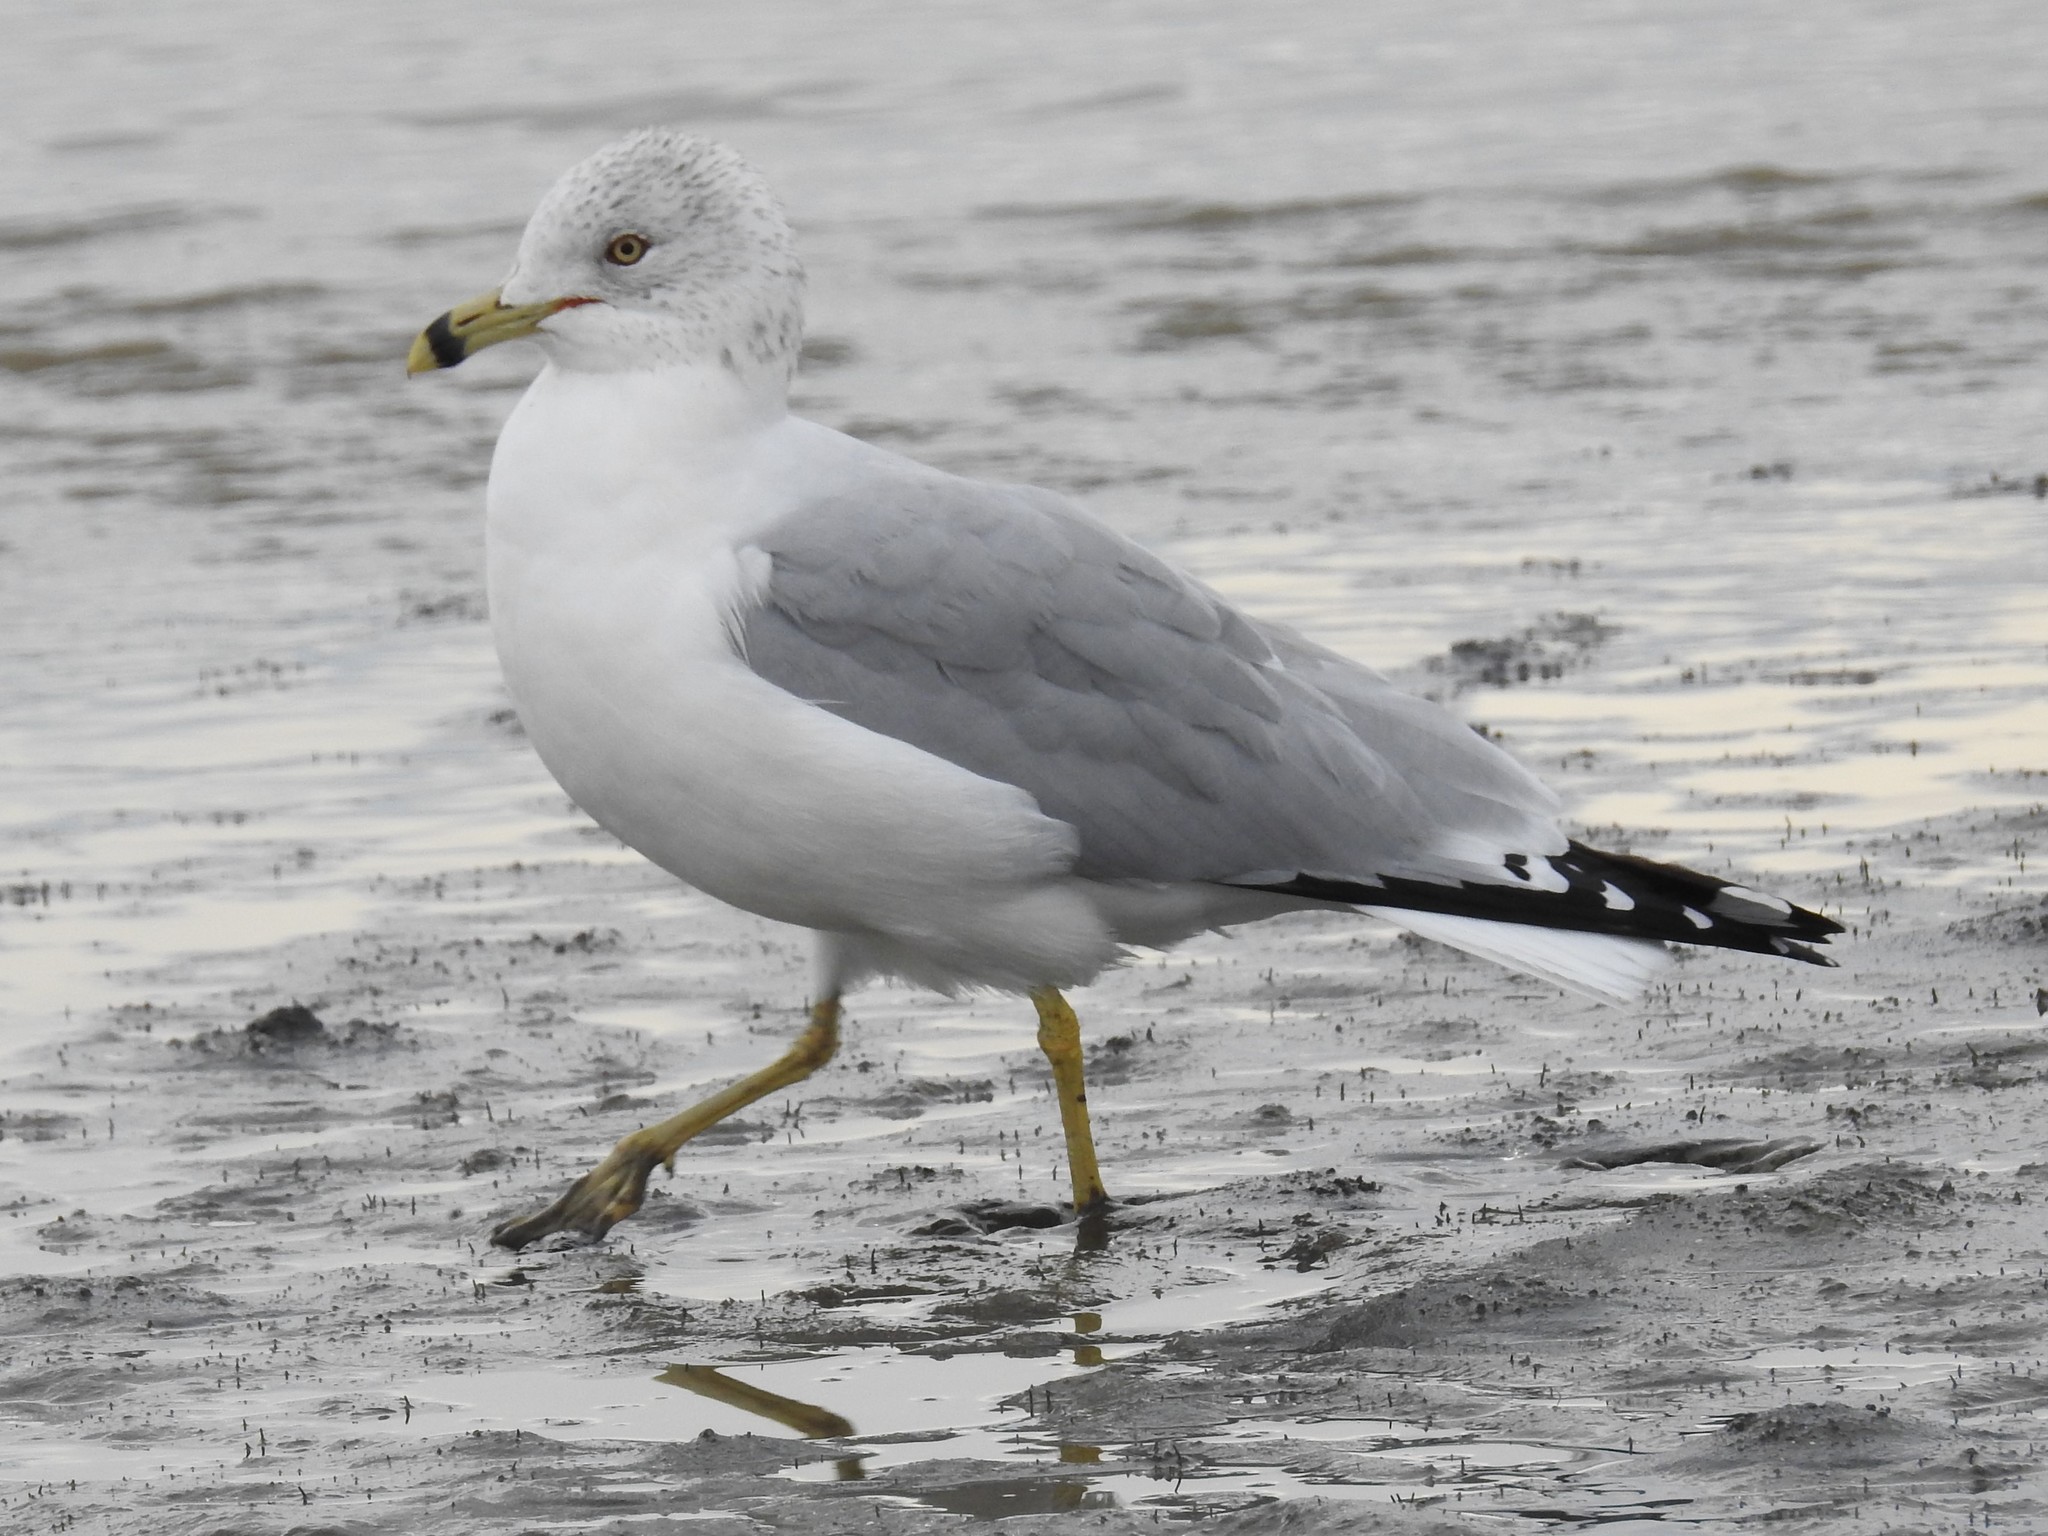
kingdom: Animalia
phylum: Chordata
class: Aves
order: Charadriiformes
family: Laridae
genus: Larus
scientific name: Larus delawarensis
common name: Ring-billed gull
